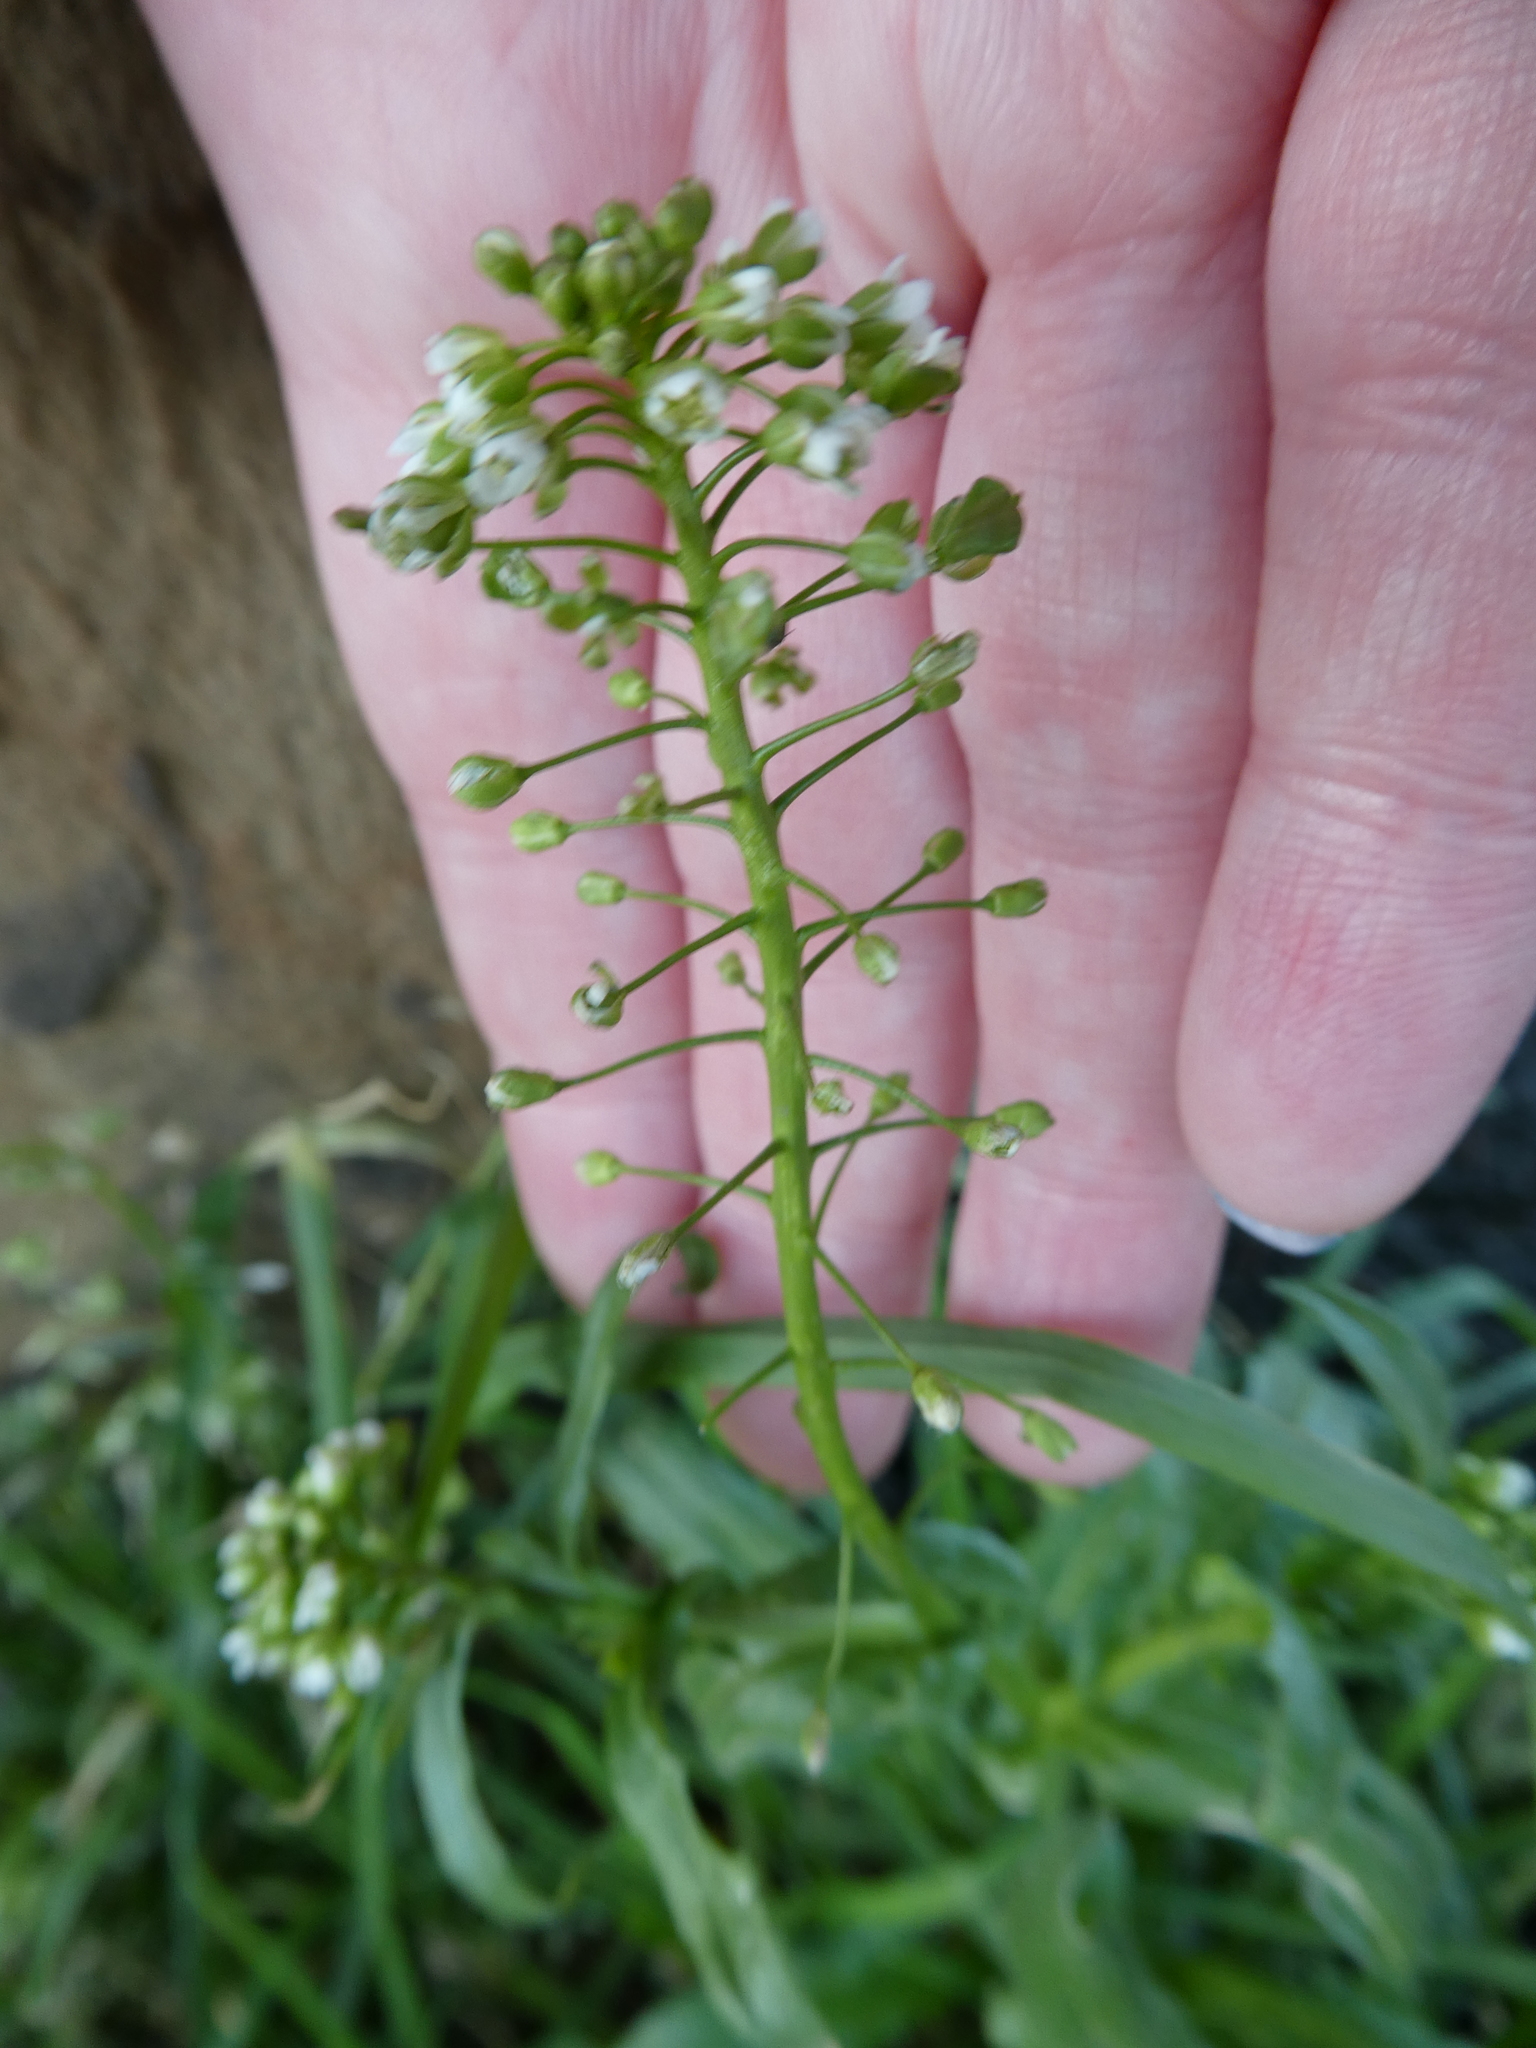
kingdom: Plantae
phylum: Tracheophyta
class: Magnoliopsida
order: Brassicales
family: Brassicaceae
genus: Capsella
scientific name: Capsella bursa-pastoris
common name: Shepherd's purse
